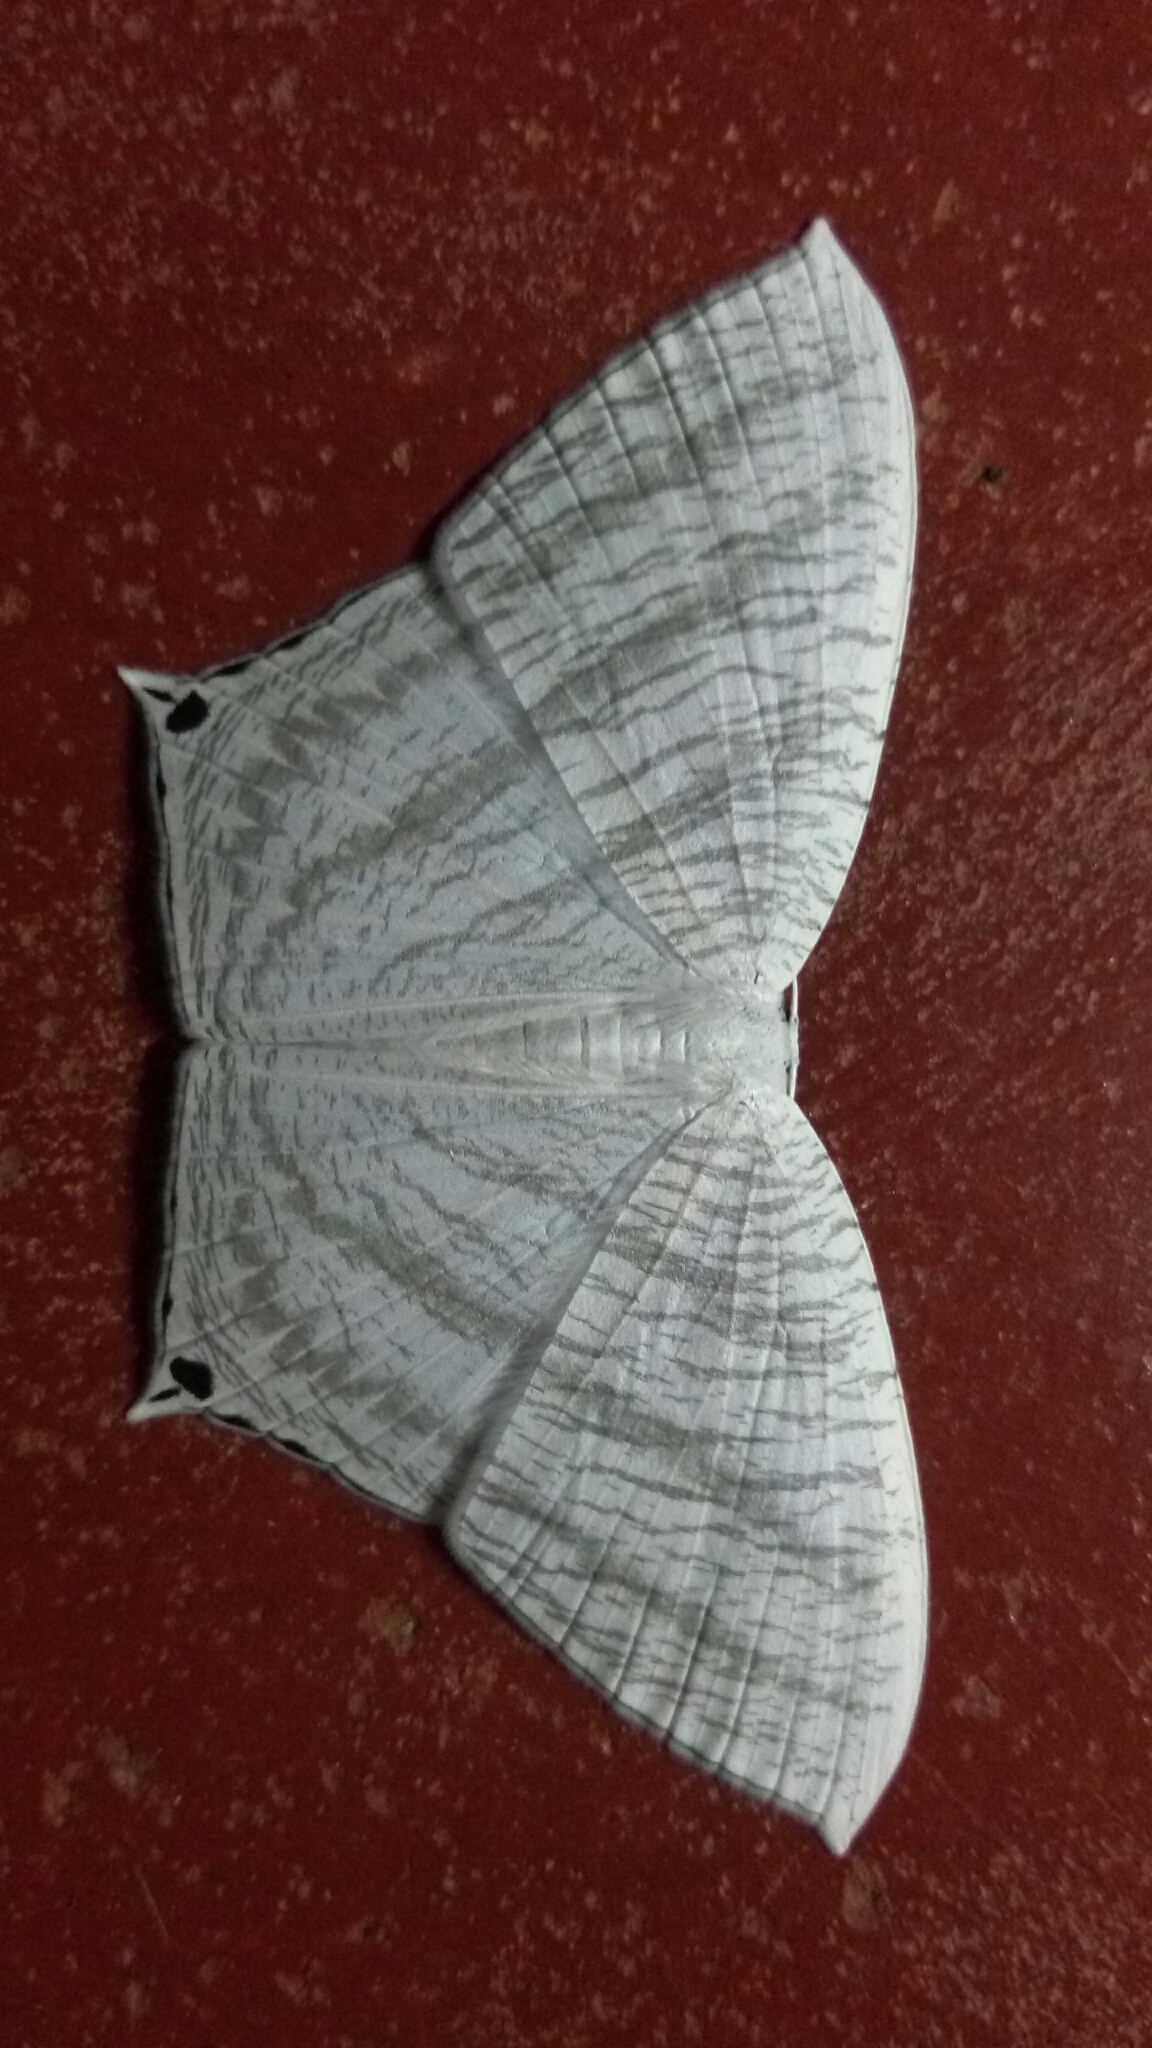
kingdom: Animalia
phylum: Arthropoda
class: Insecta
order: Lepidoptera
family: Uraniidae
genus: Micronia
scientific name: Micronia aculeata
